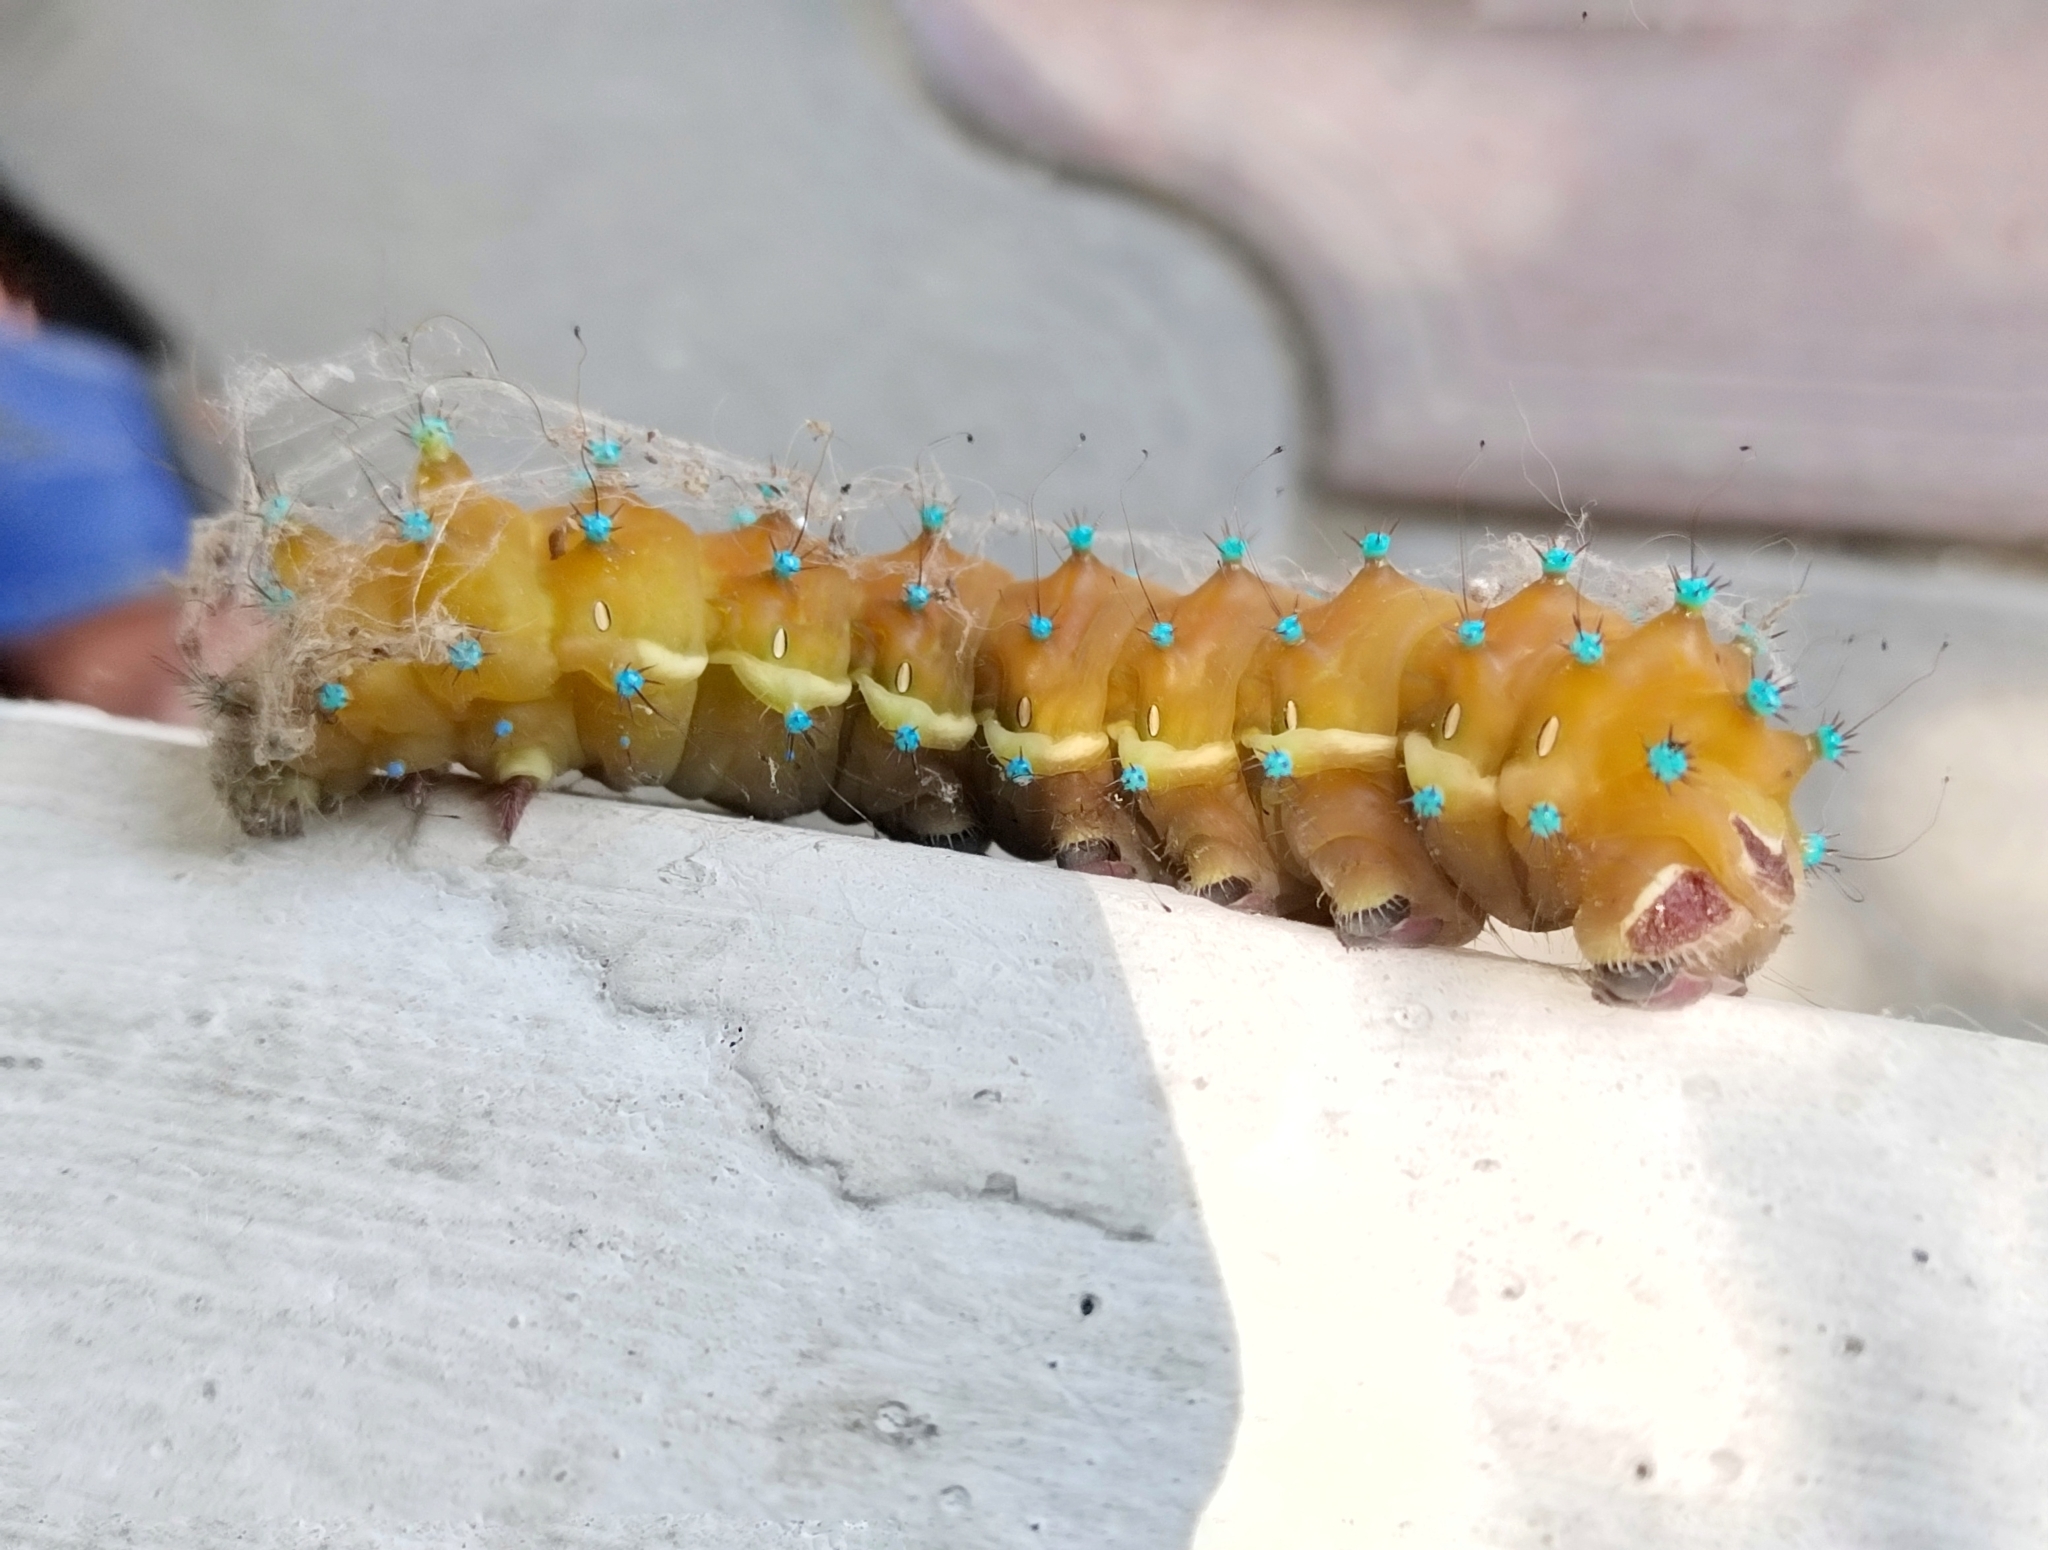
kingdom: Animalia
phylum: Arthropoda
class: Insecta
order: Lepidoptera
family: Saturniidae
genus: Saturnia
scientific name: Saturnia pyri
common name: Great peacock moth
